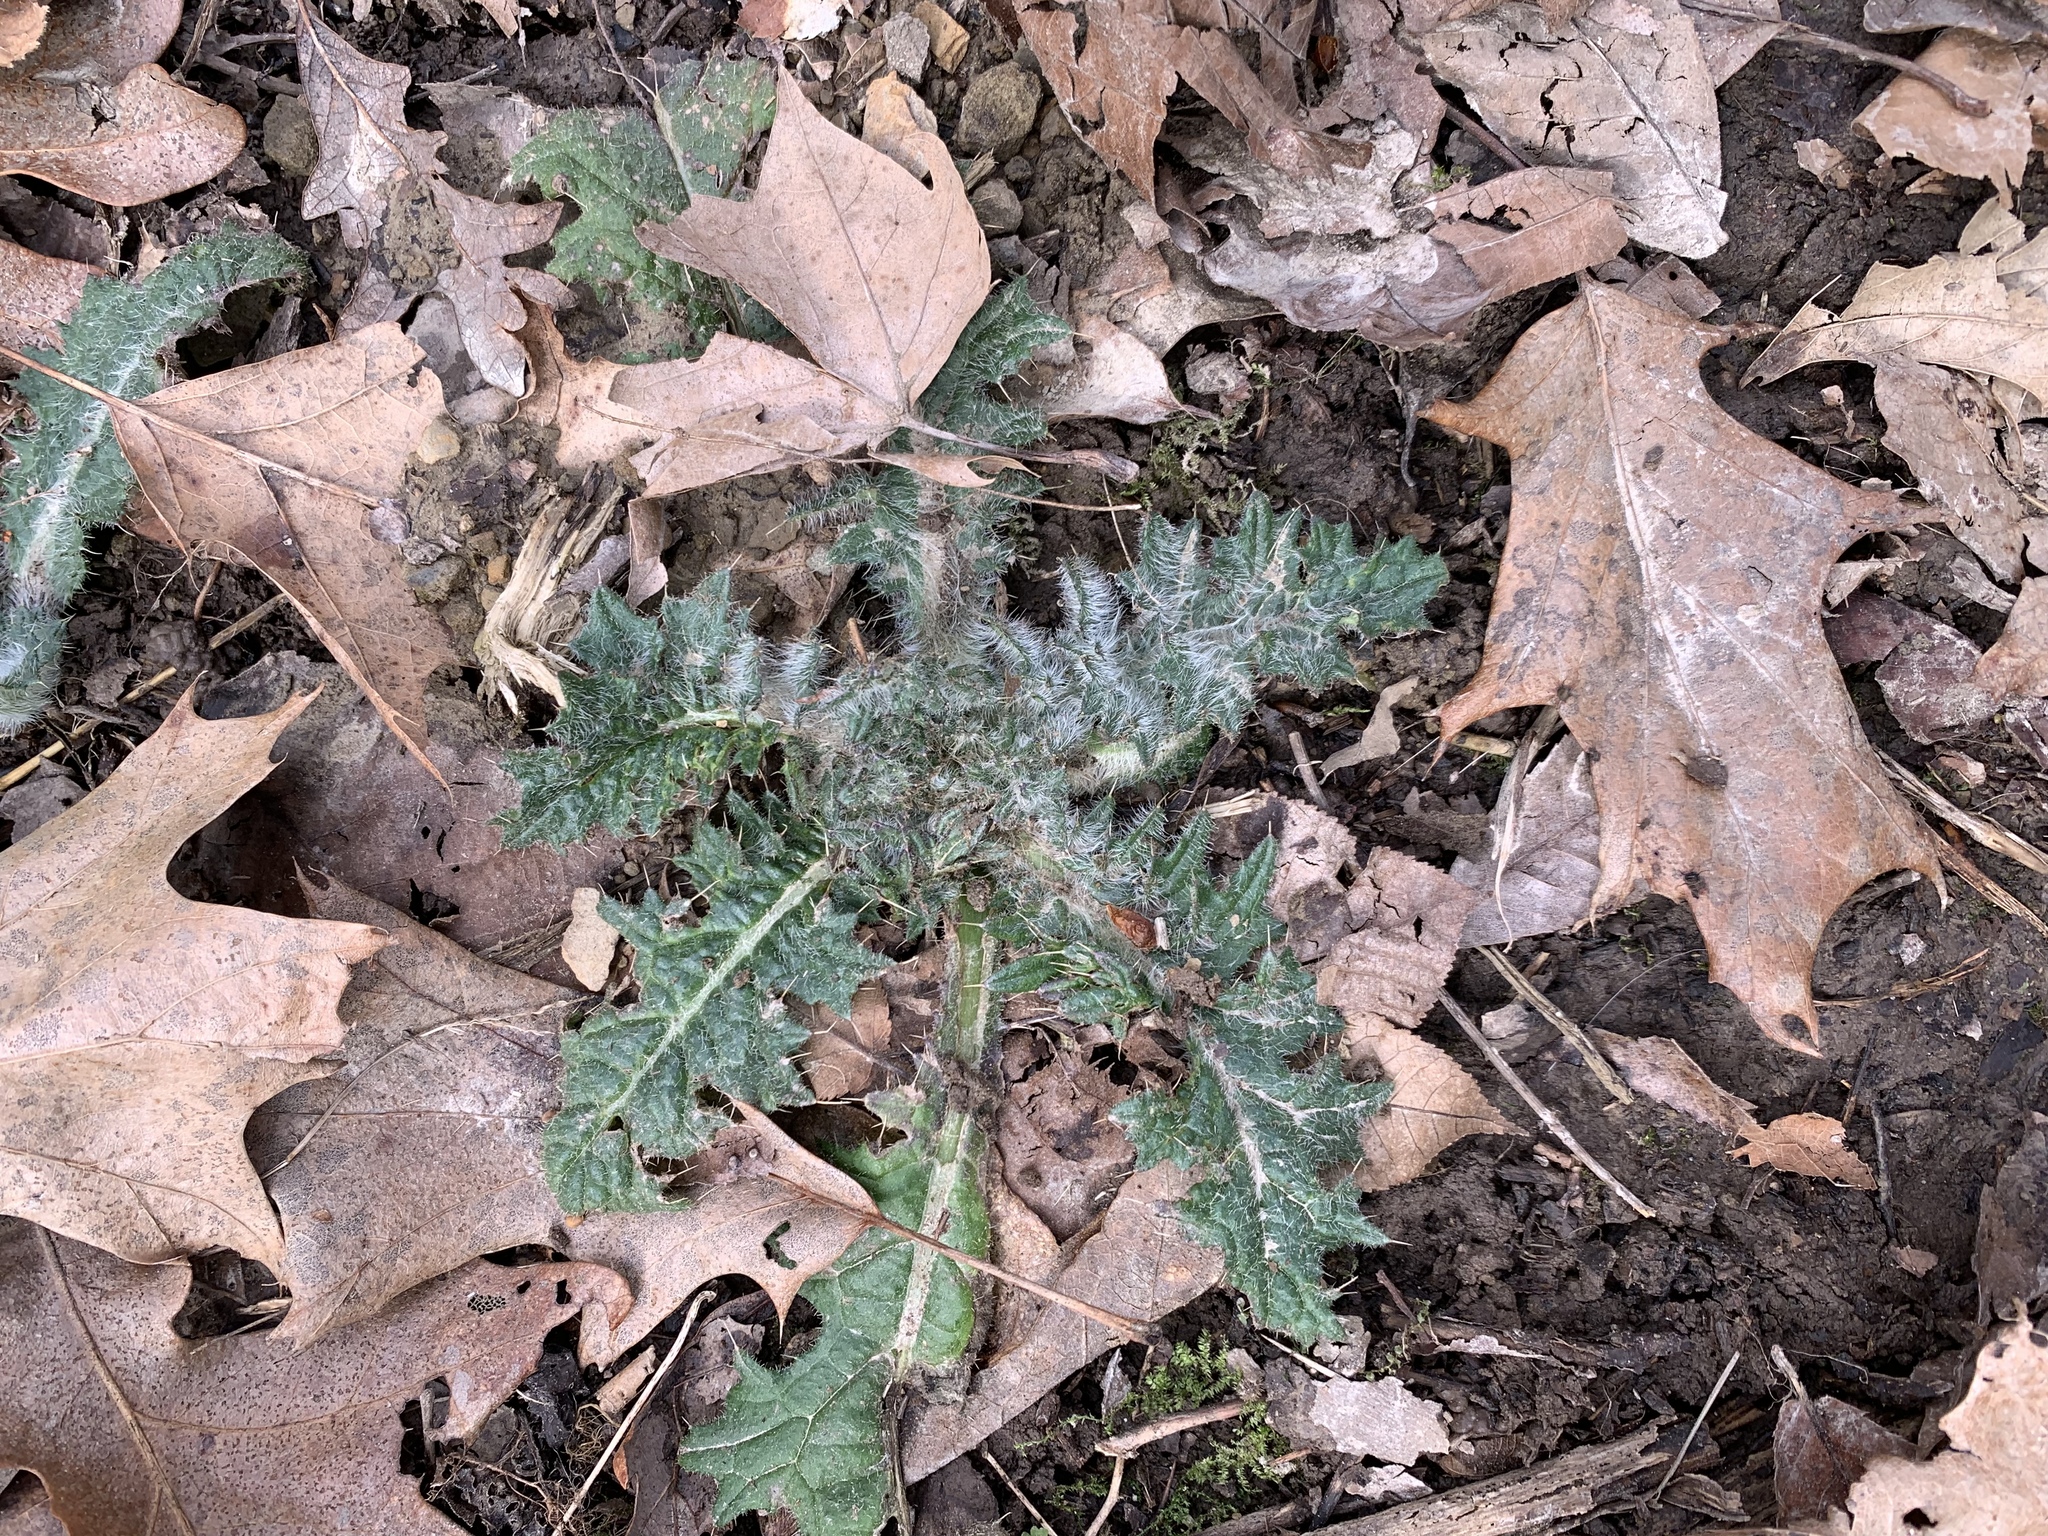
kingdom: Plantae
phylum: Tracheophyta
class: Magnoliopsida
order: Asterales
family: Asteraceae
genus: Cirsium
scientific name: Cirsium vulgare
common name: Bull thistle
